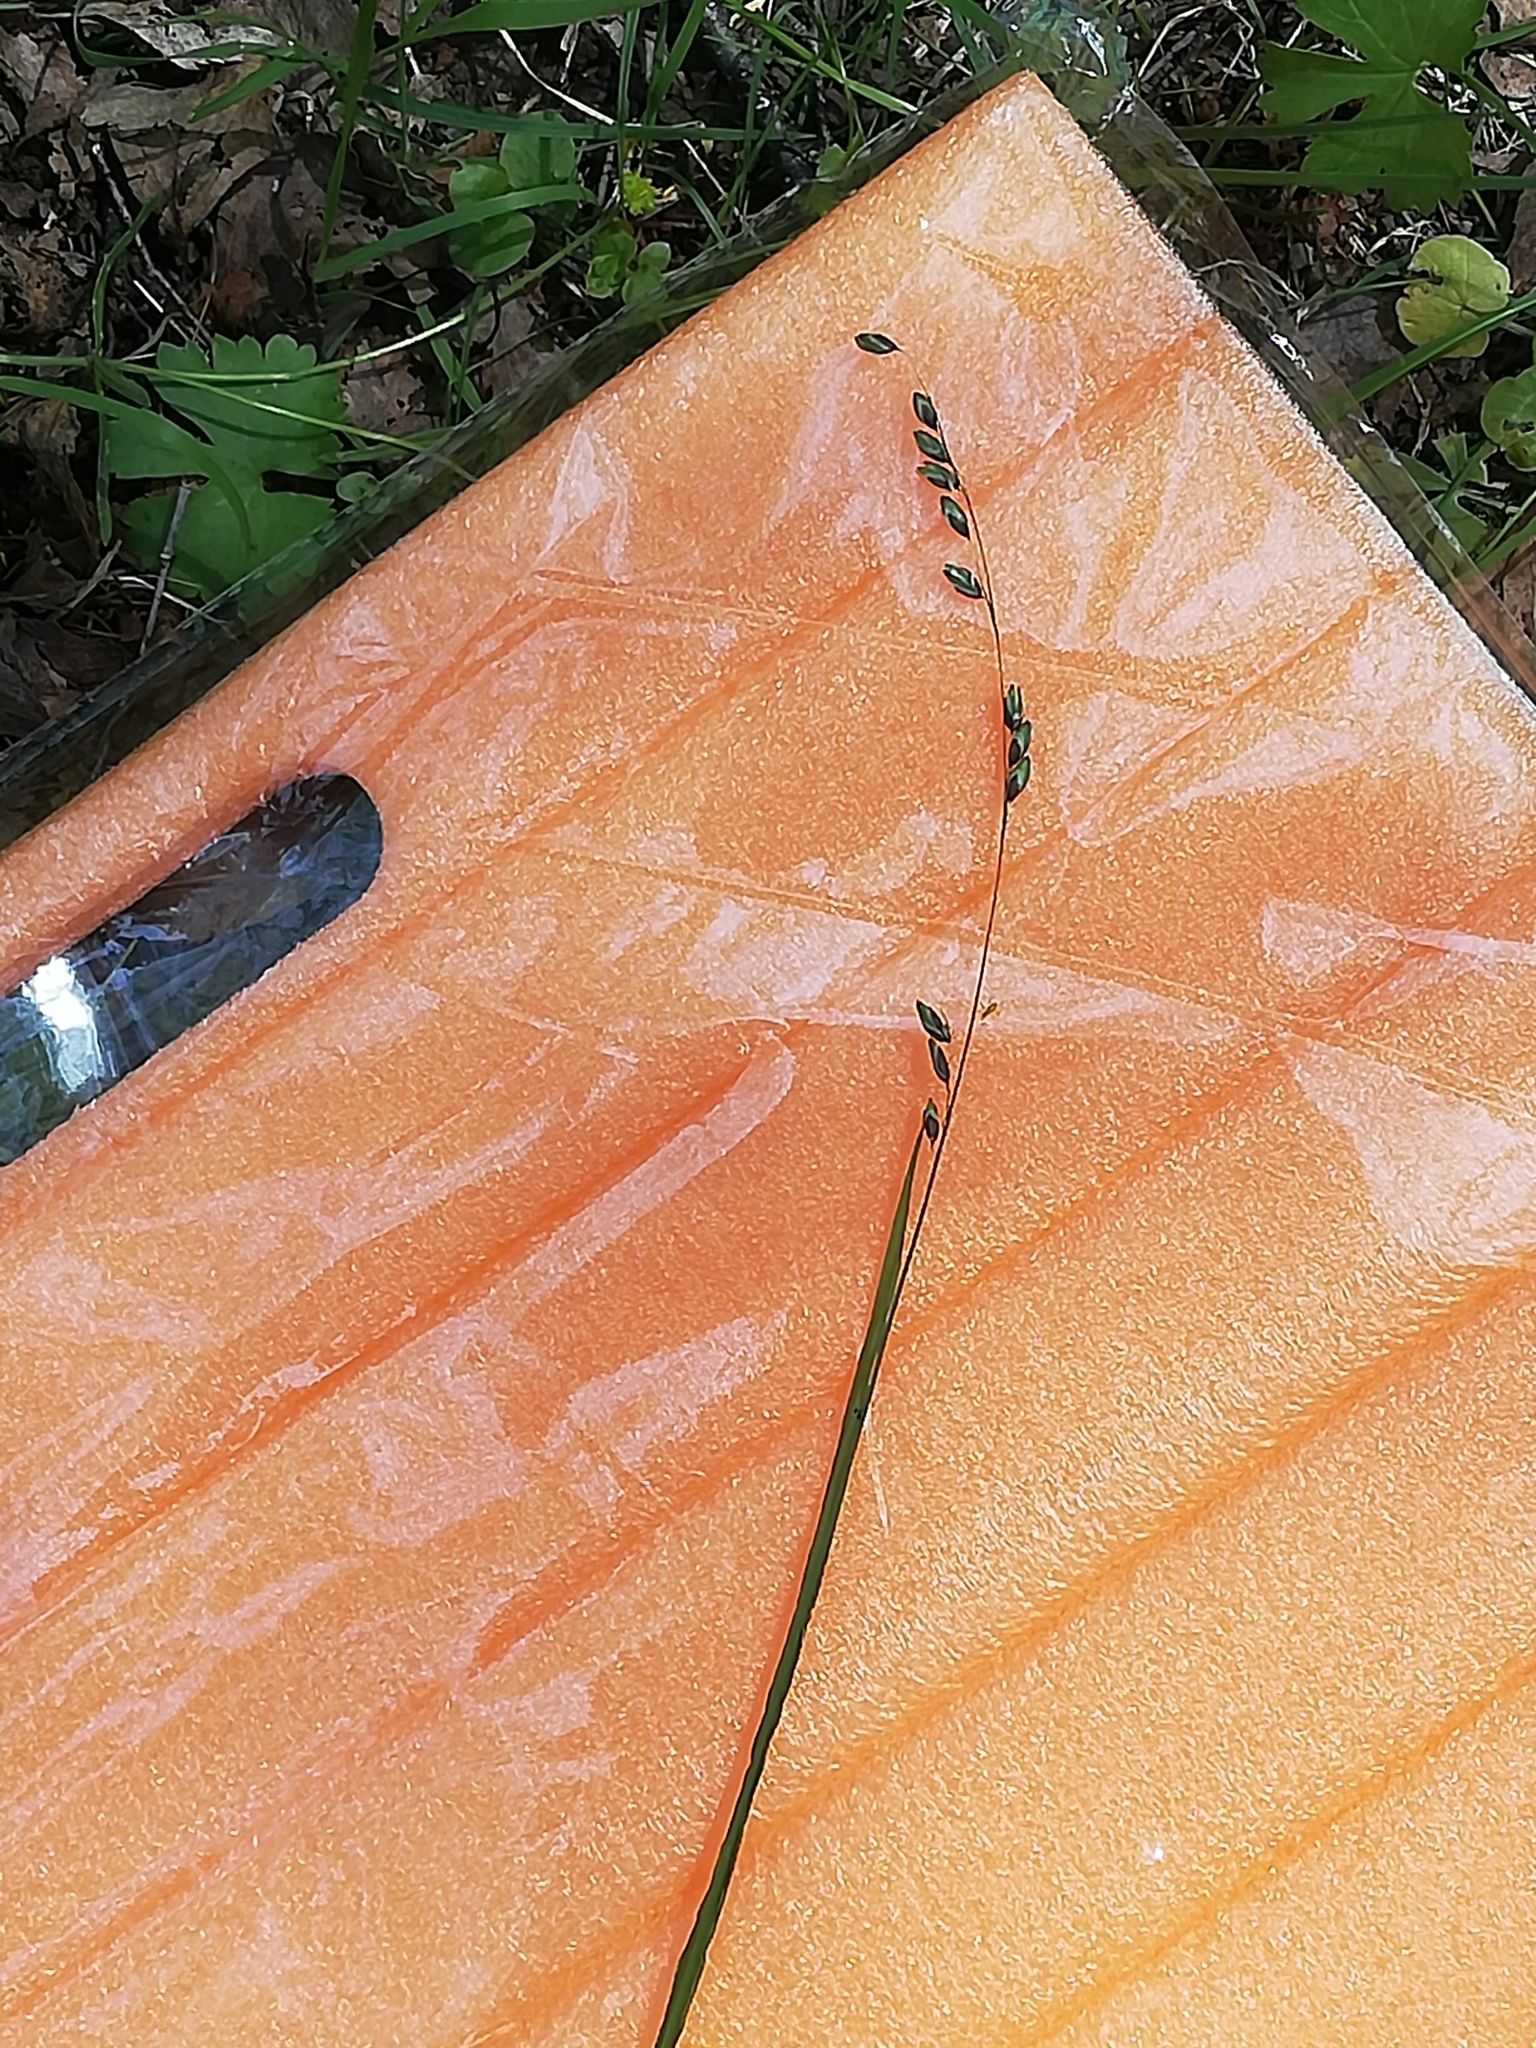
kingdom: Plantae
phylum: Tracheophyta
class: Liliopsida
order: Poales
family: Poaceae
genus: Melica
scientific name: Melica nutans
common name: Mountain melick
